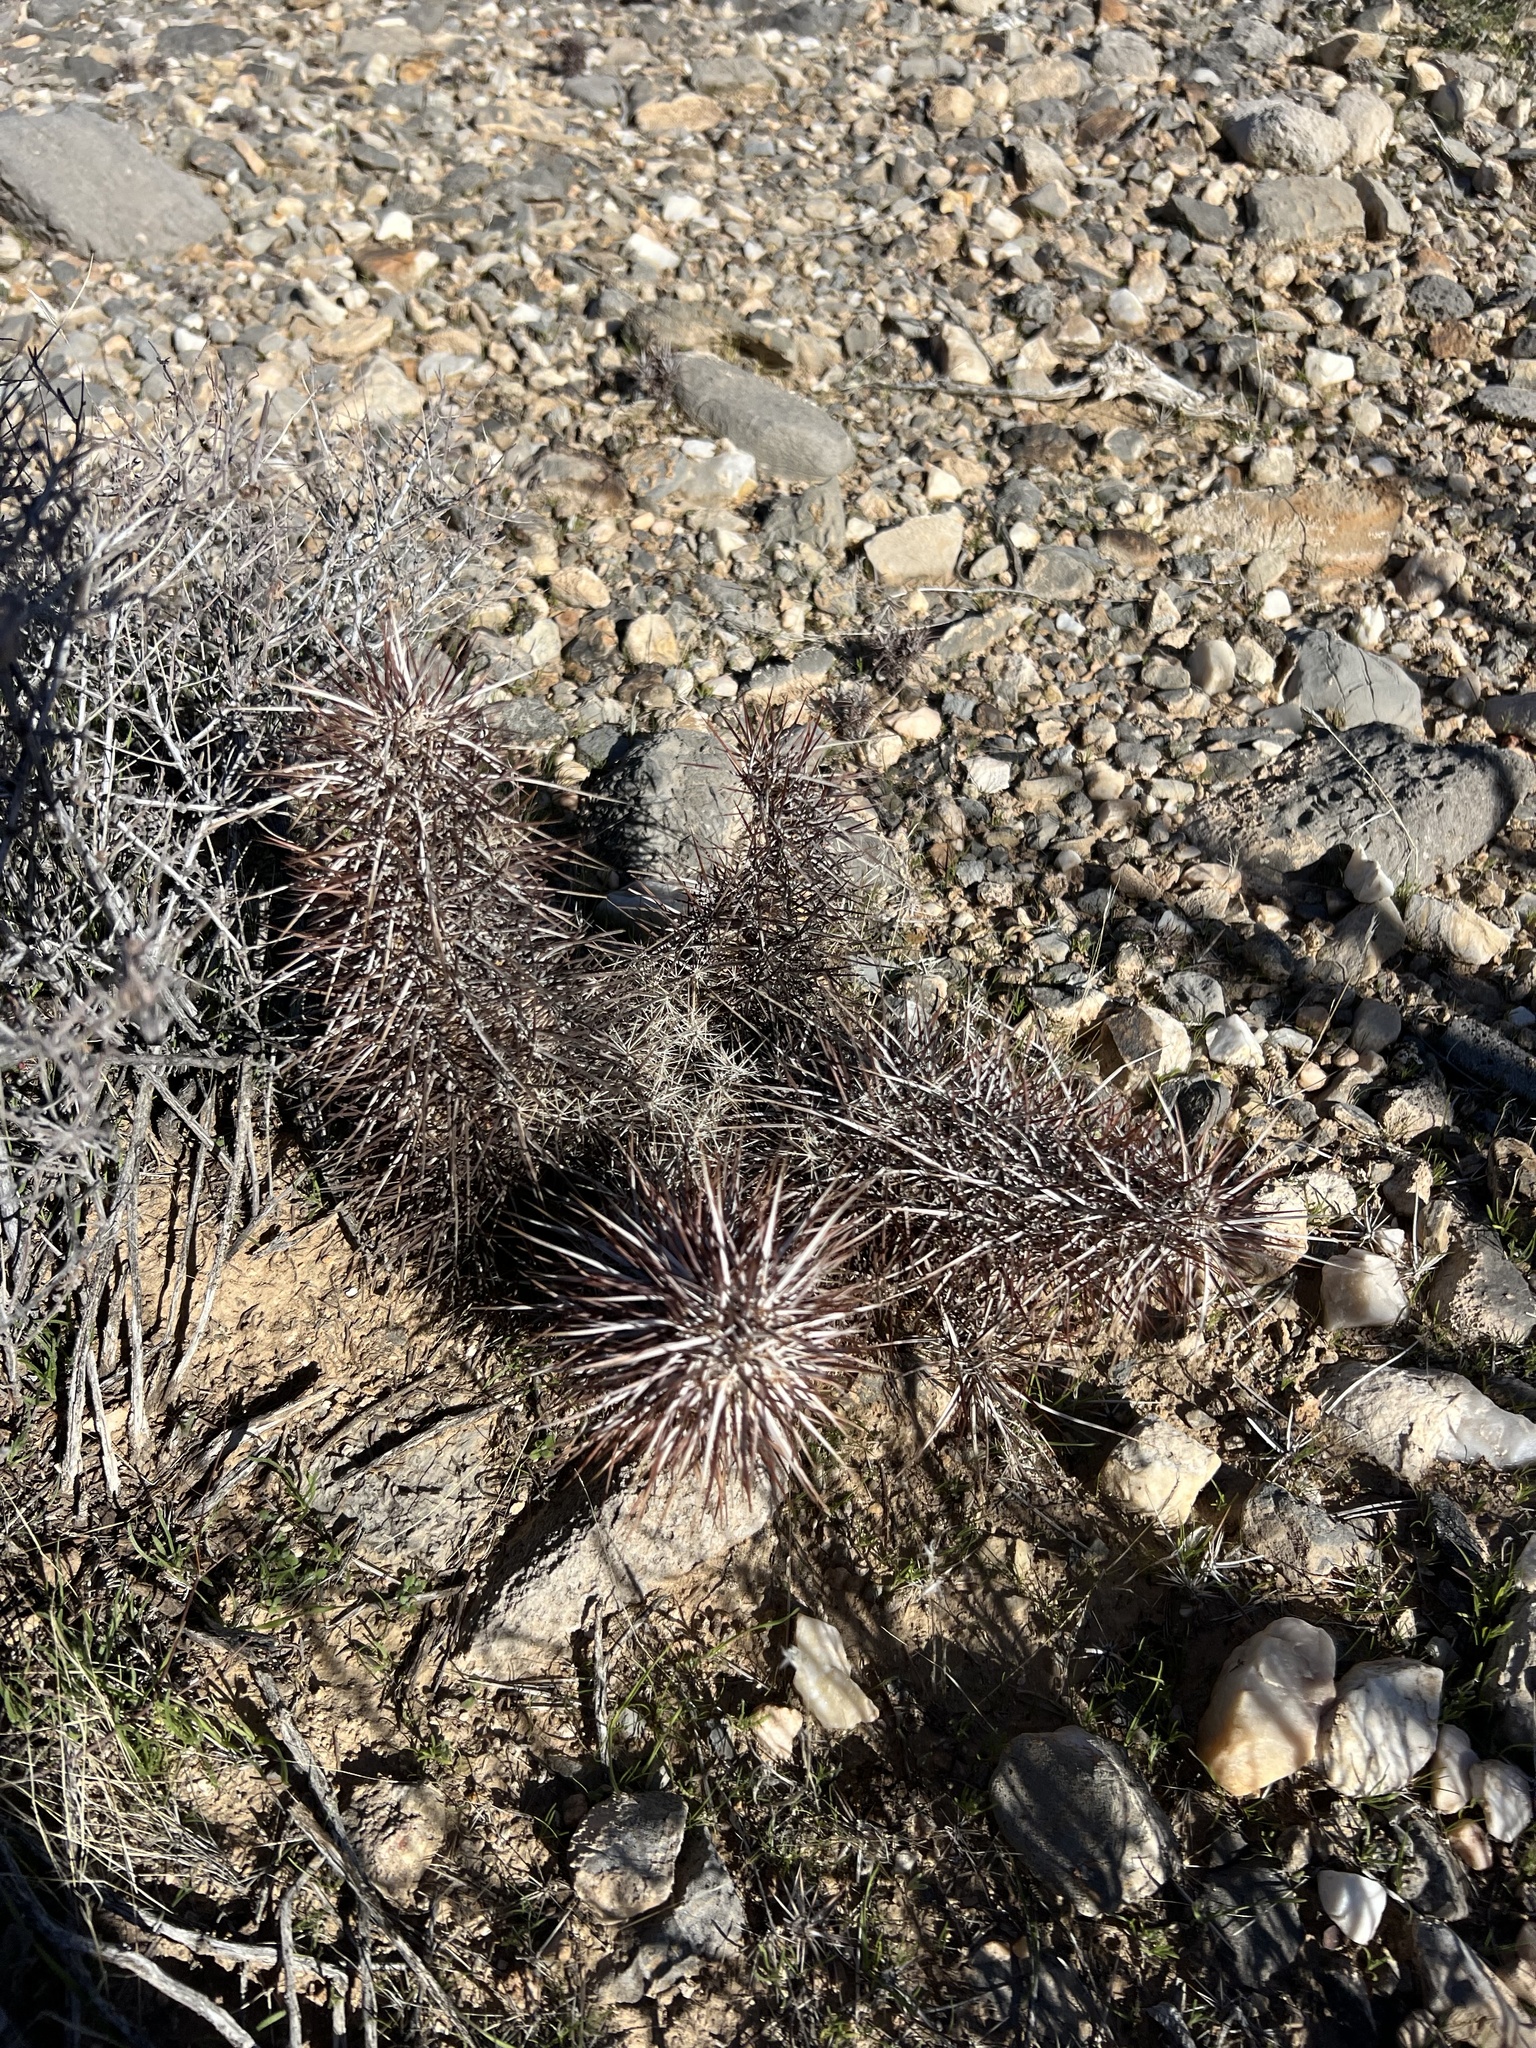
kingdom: Plantae
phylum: Tracheophyta
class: Magnoliopsida
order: Caryophyllales
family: Cactaceae
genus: Echinocereus
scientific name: Echinocereus engelmannii
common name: Engelmann's hedgehog cactus
